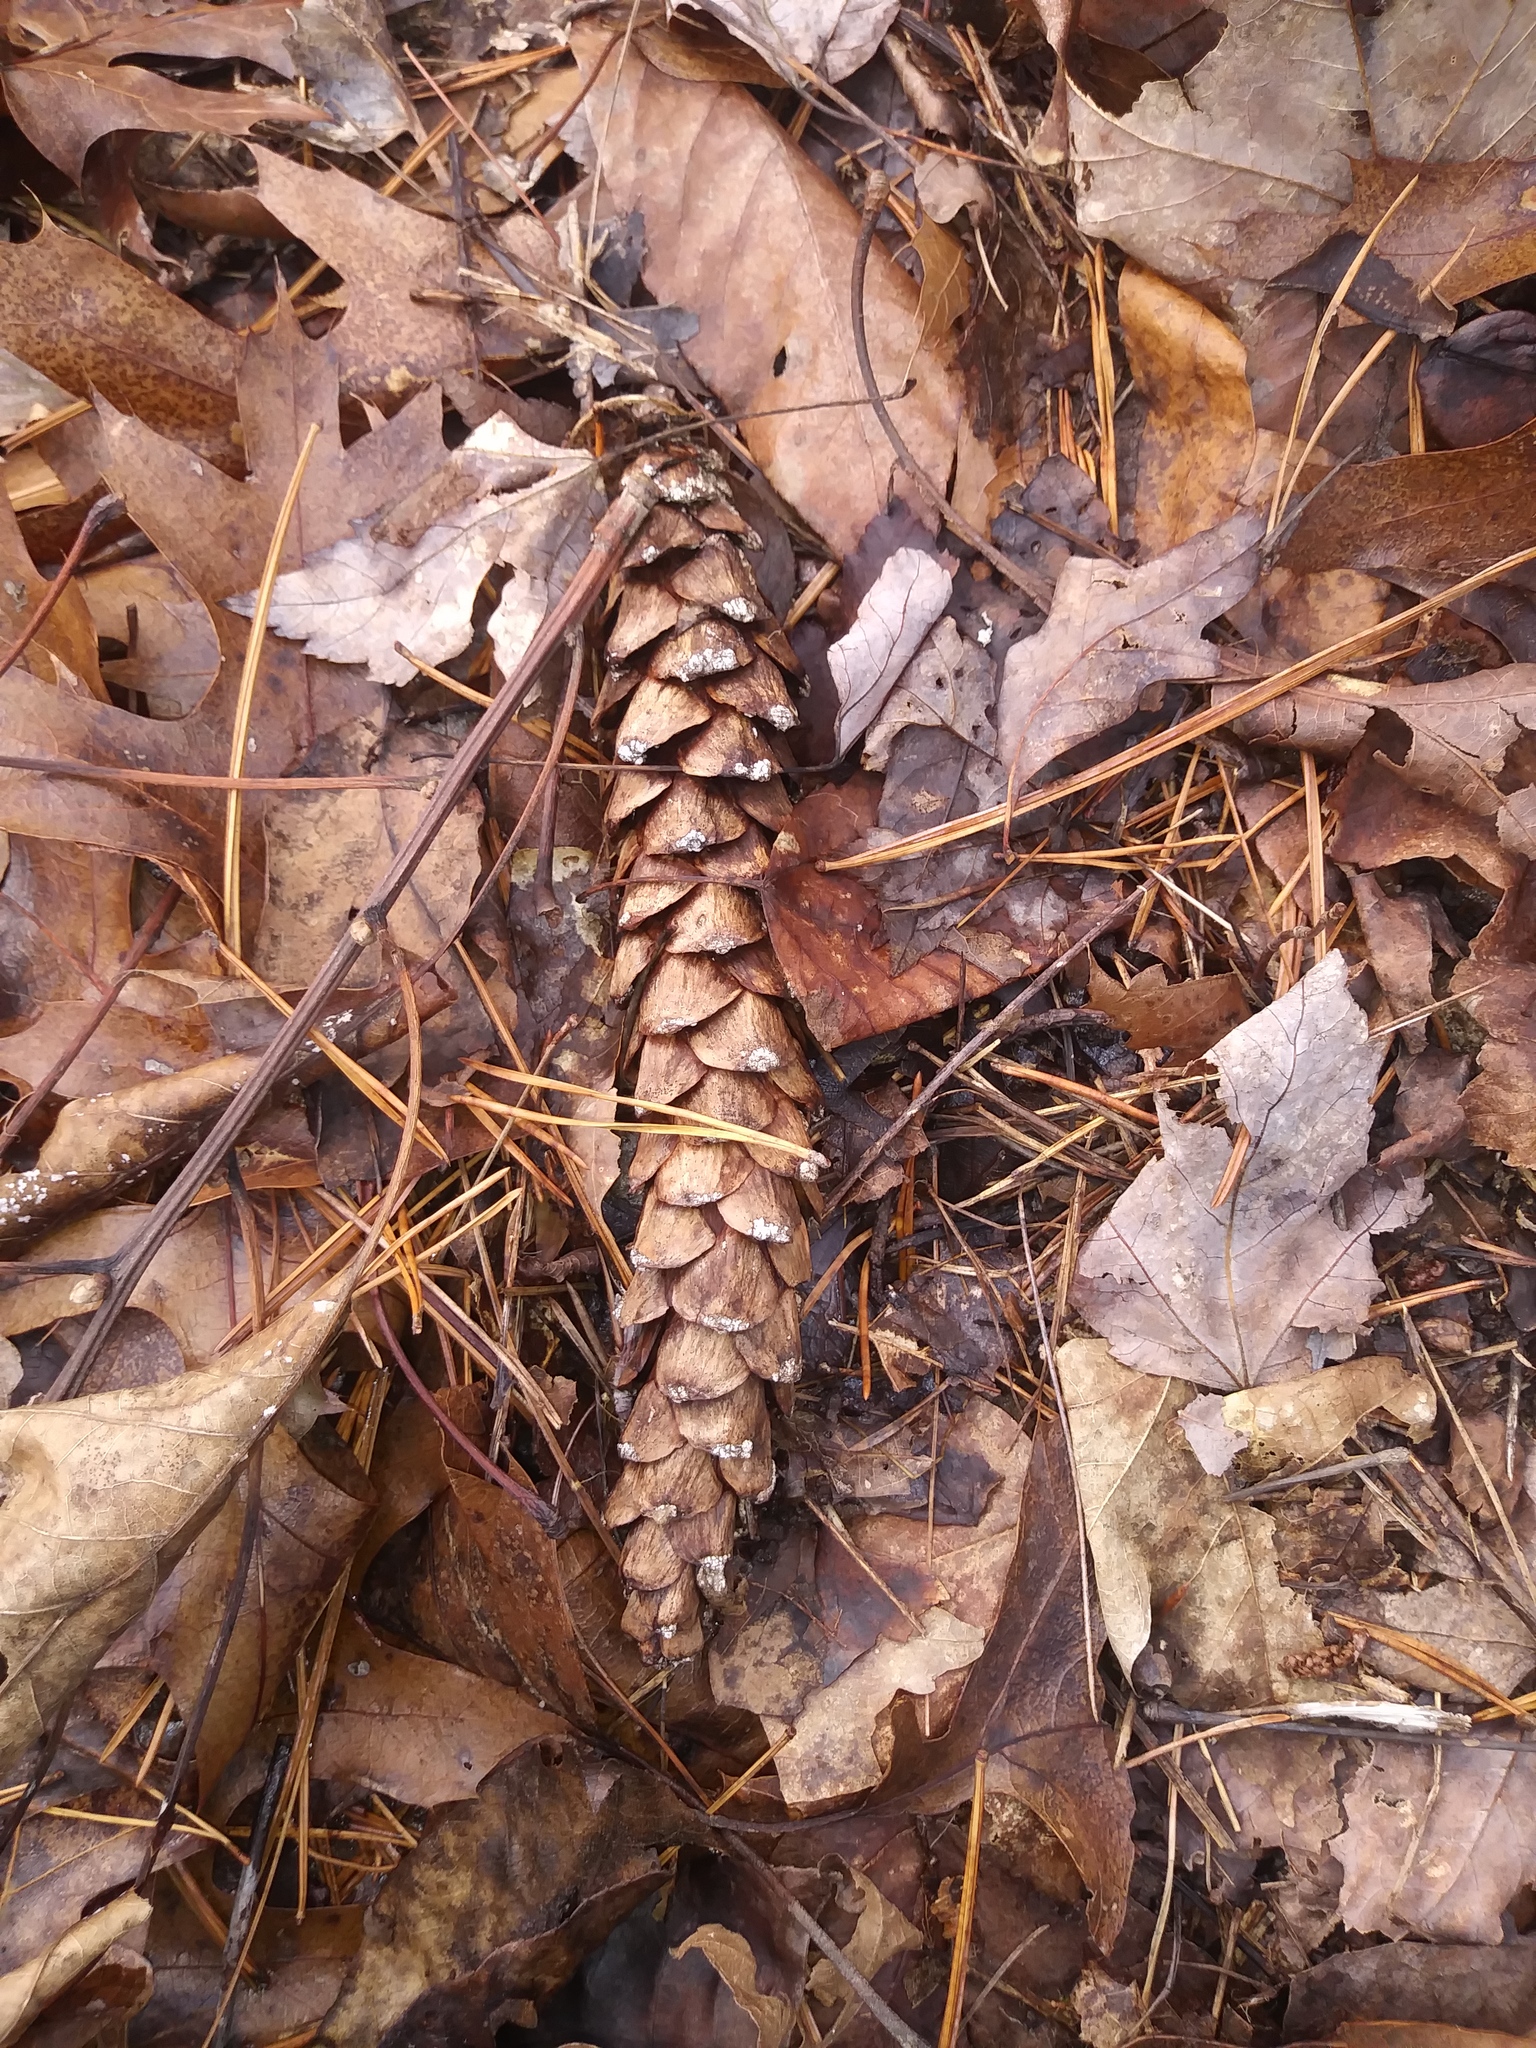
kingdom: Plantae
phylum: Tracheophyta
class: Pinopsida
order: Pinales
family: Pinaceae
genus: Pinus
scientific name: Pinus strobus
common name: Weymouth pine
